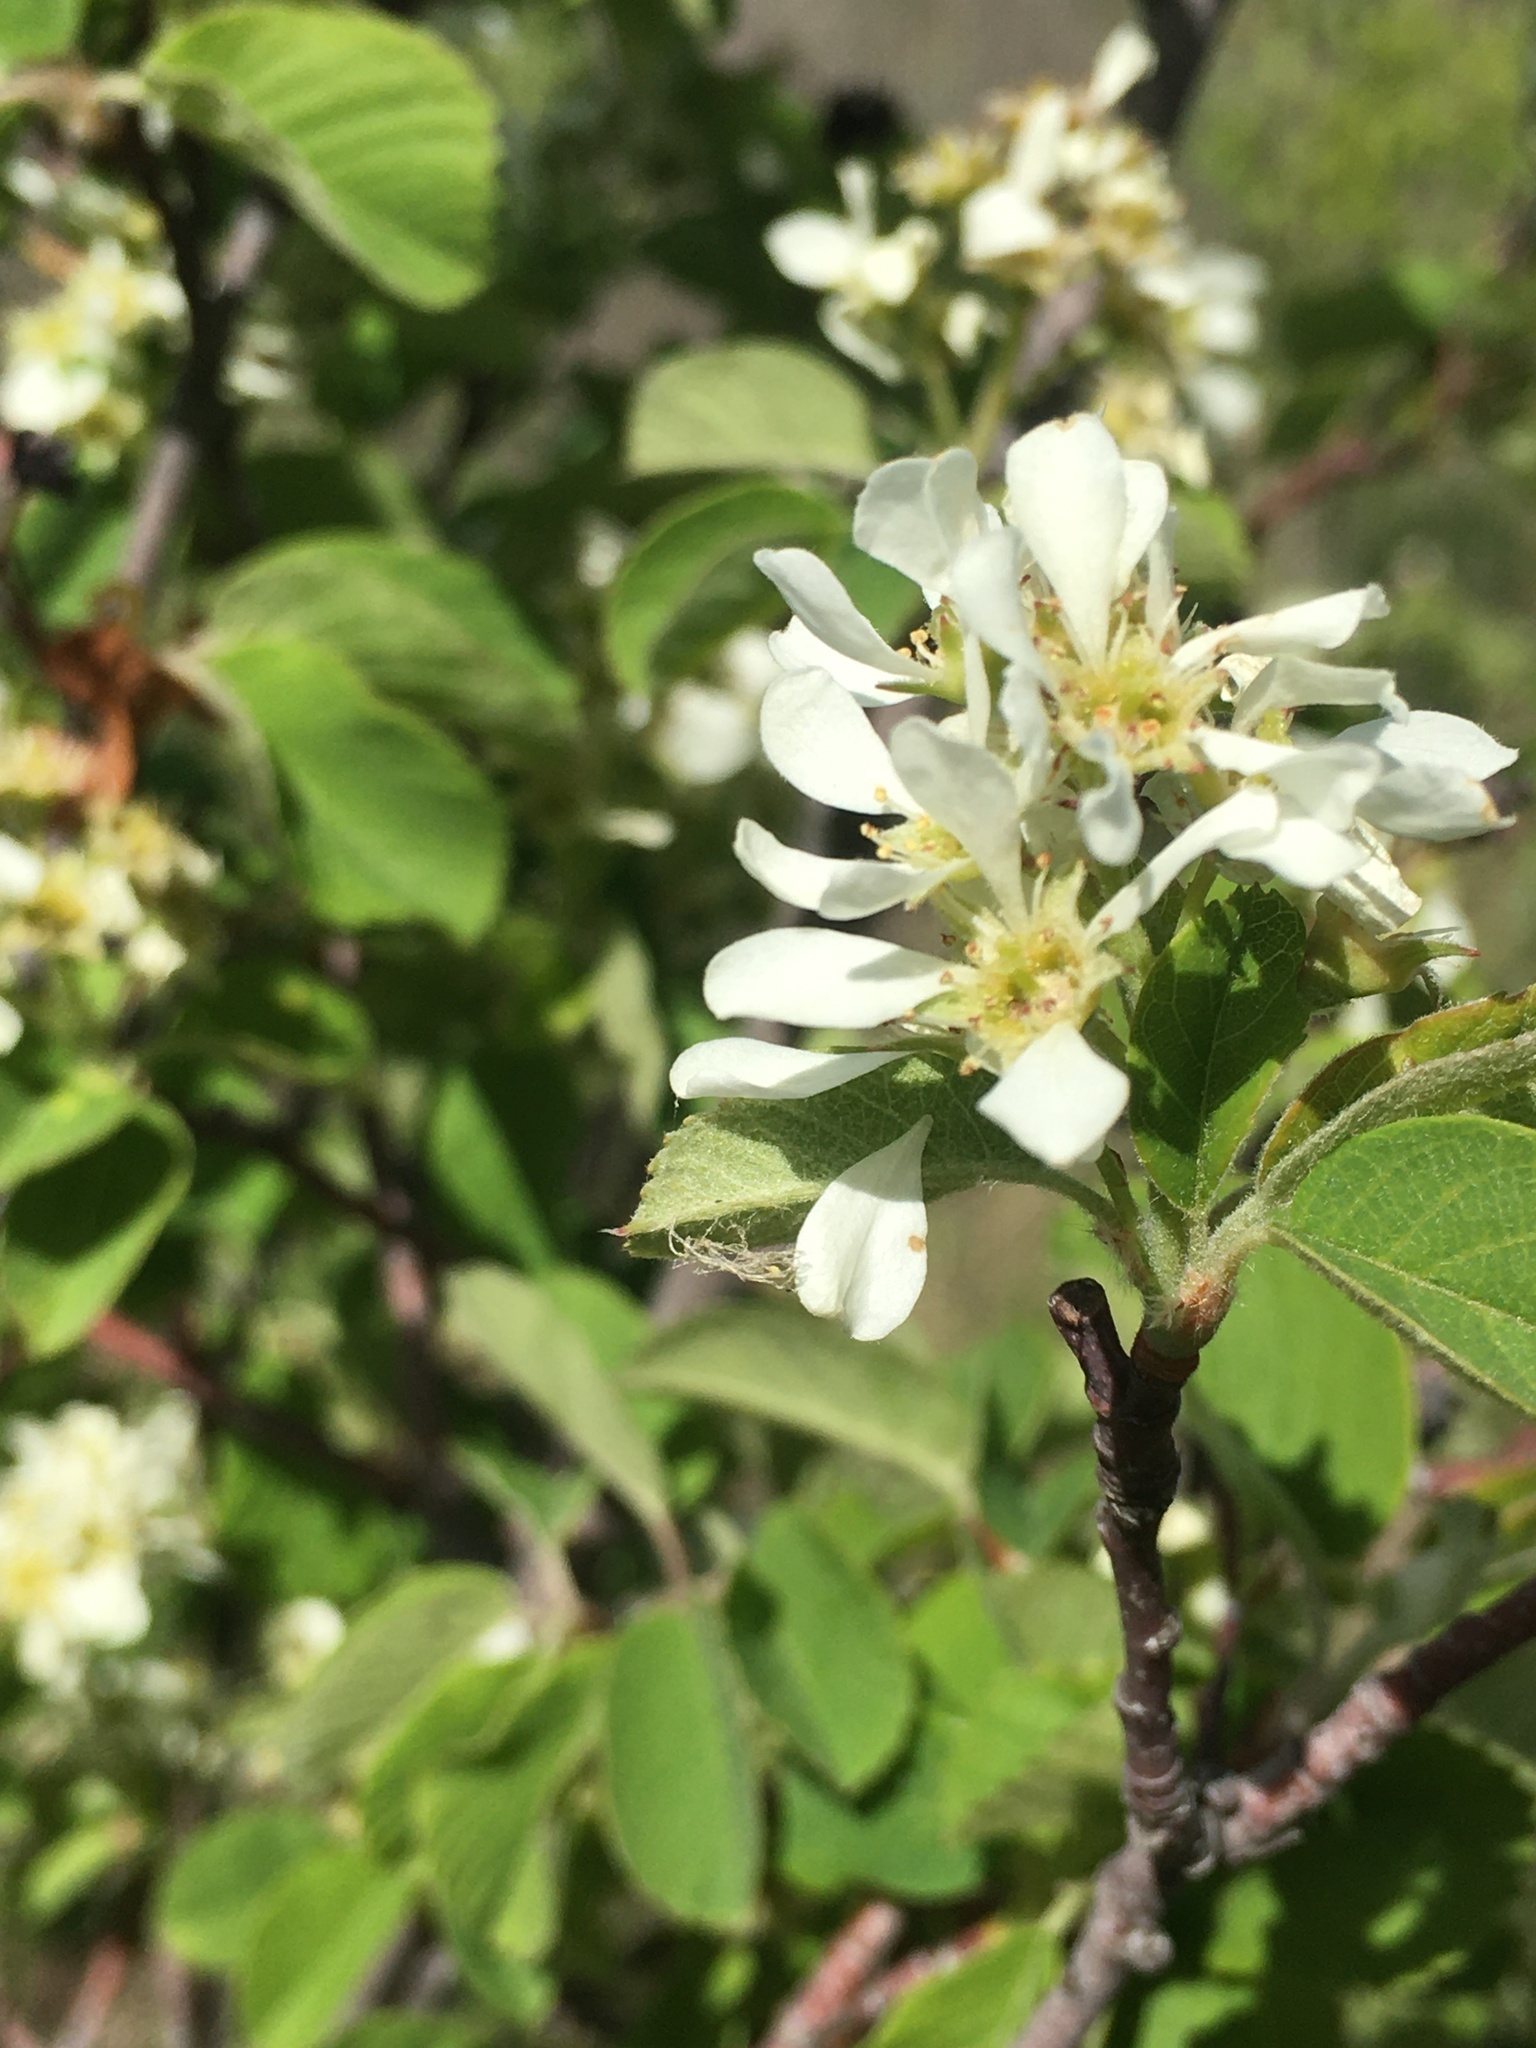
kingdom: Plantae
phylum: Tracheophyta
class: Magnoliopsida
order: Rosales
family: Rosaceae
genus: Amelanchier
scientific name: Amelanchier alnifolia
